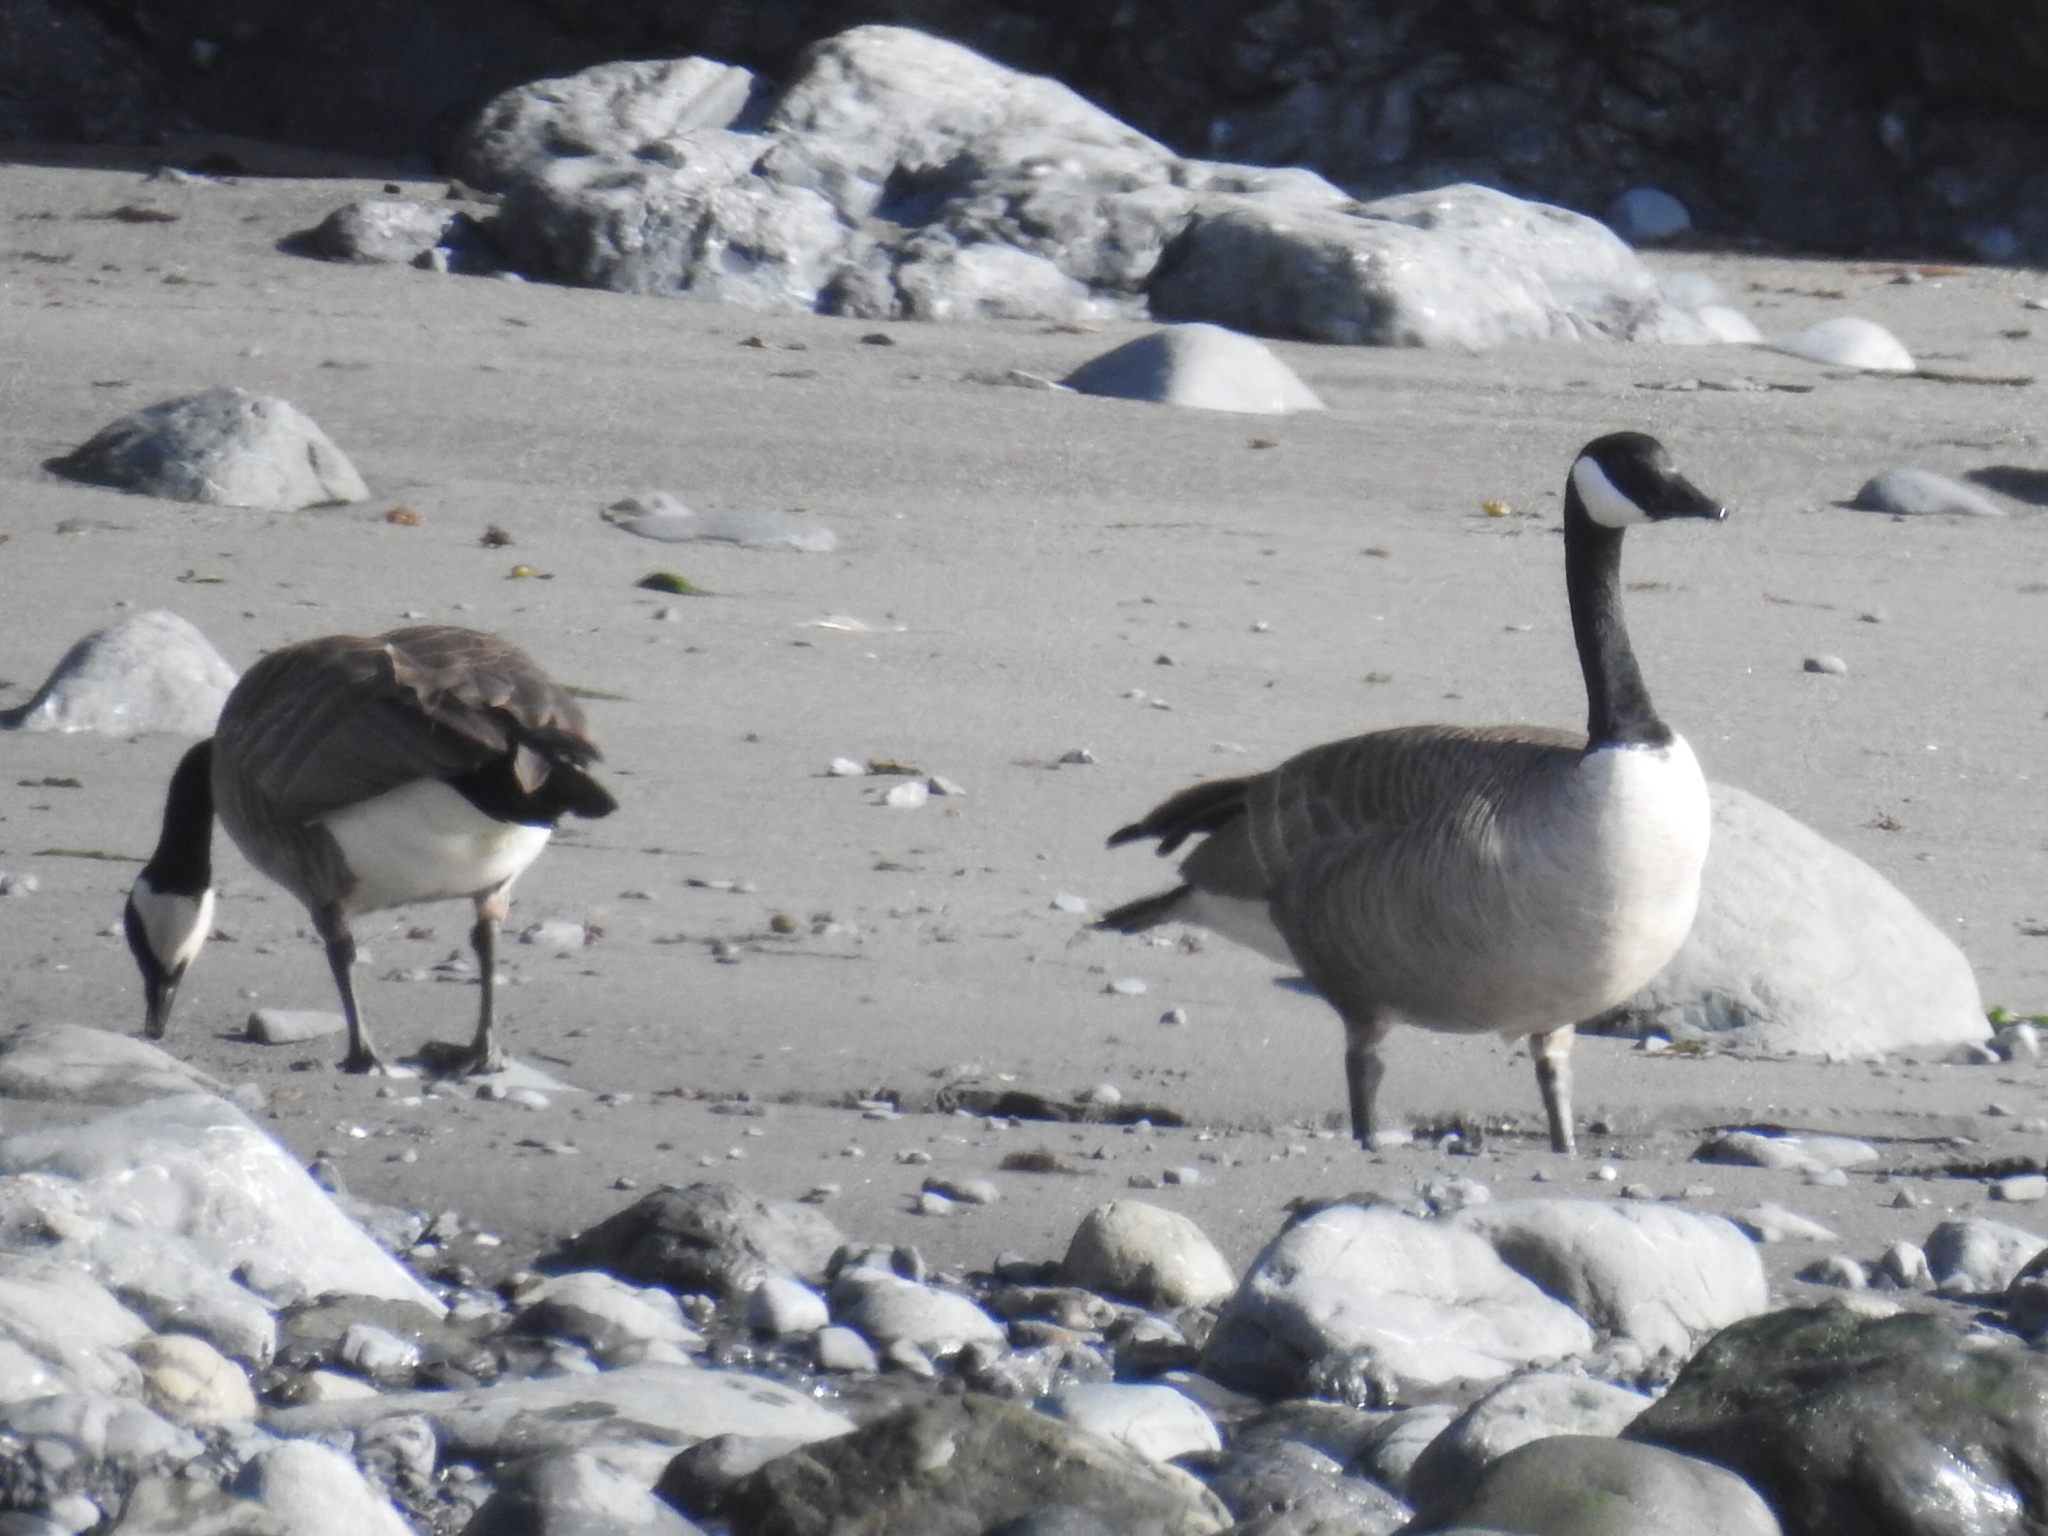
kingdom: Animalia
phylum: Chordata
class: Aves
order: Anseriformes
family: Anatidae
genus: Branta
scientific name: Branta canadensis
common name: Canada goose
